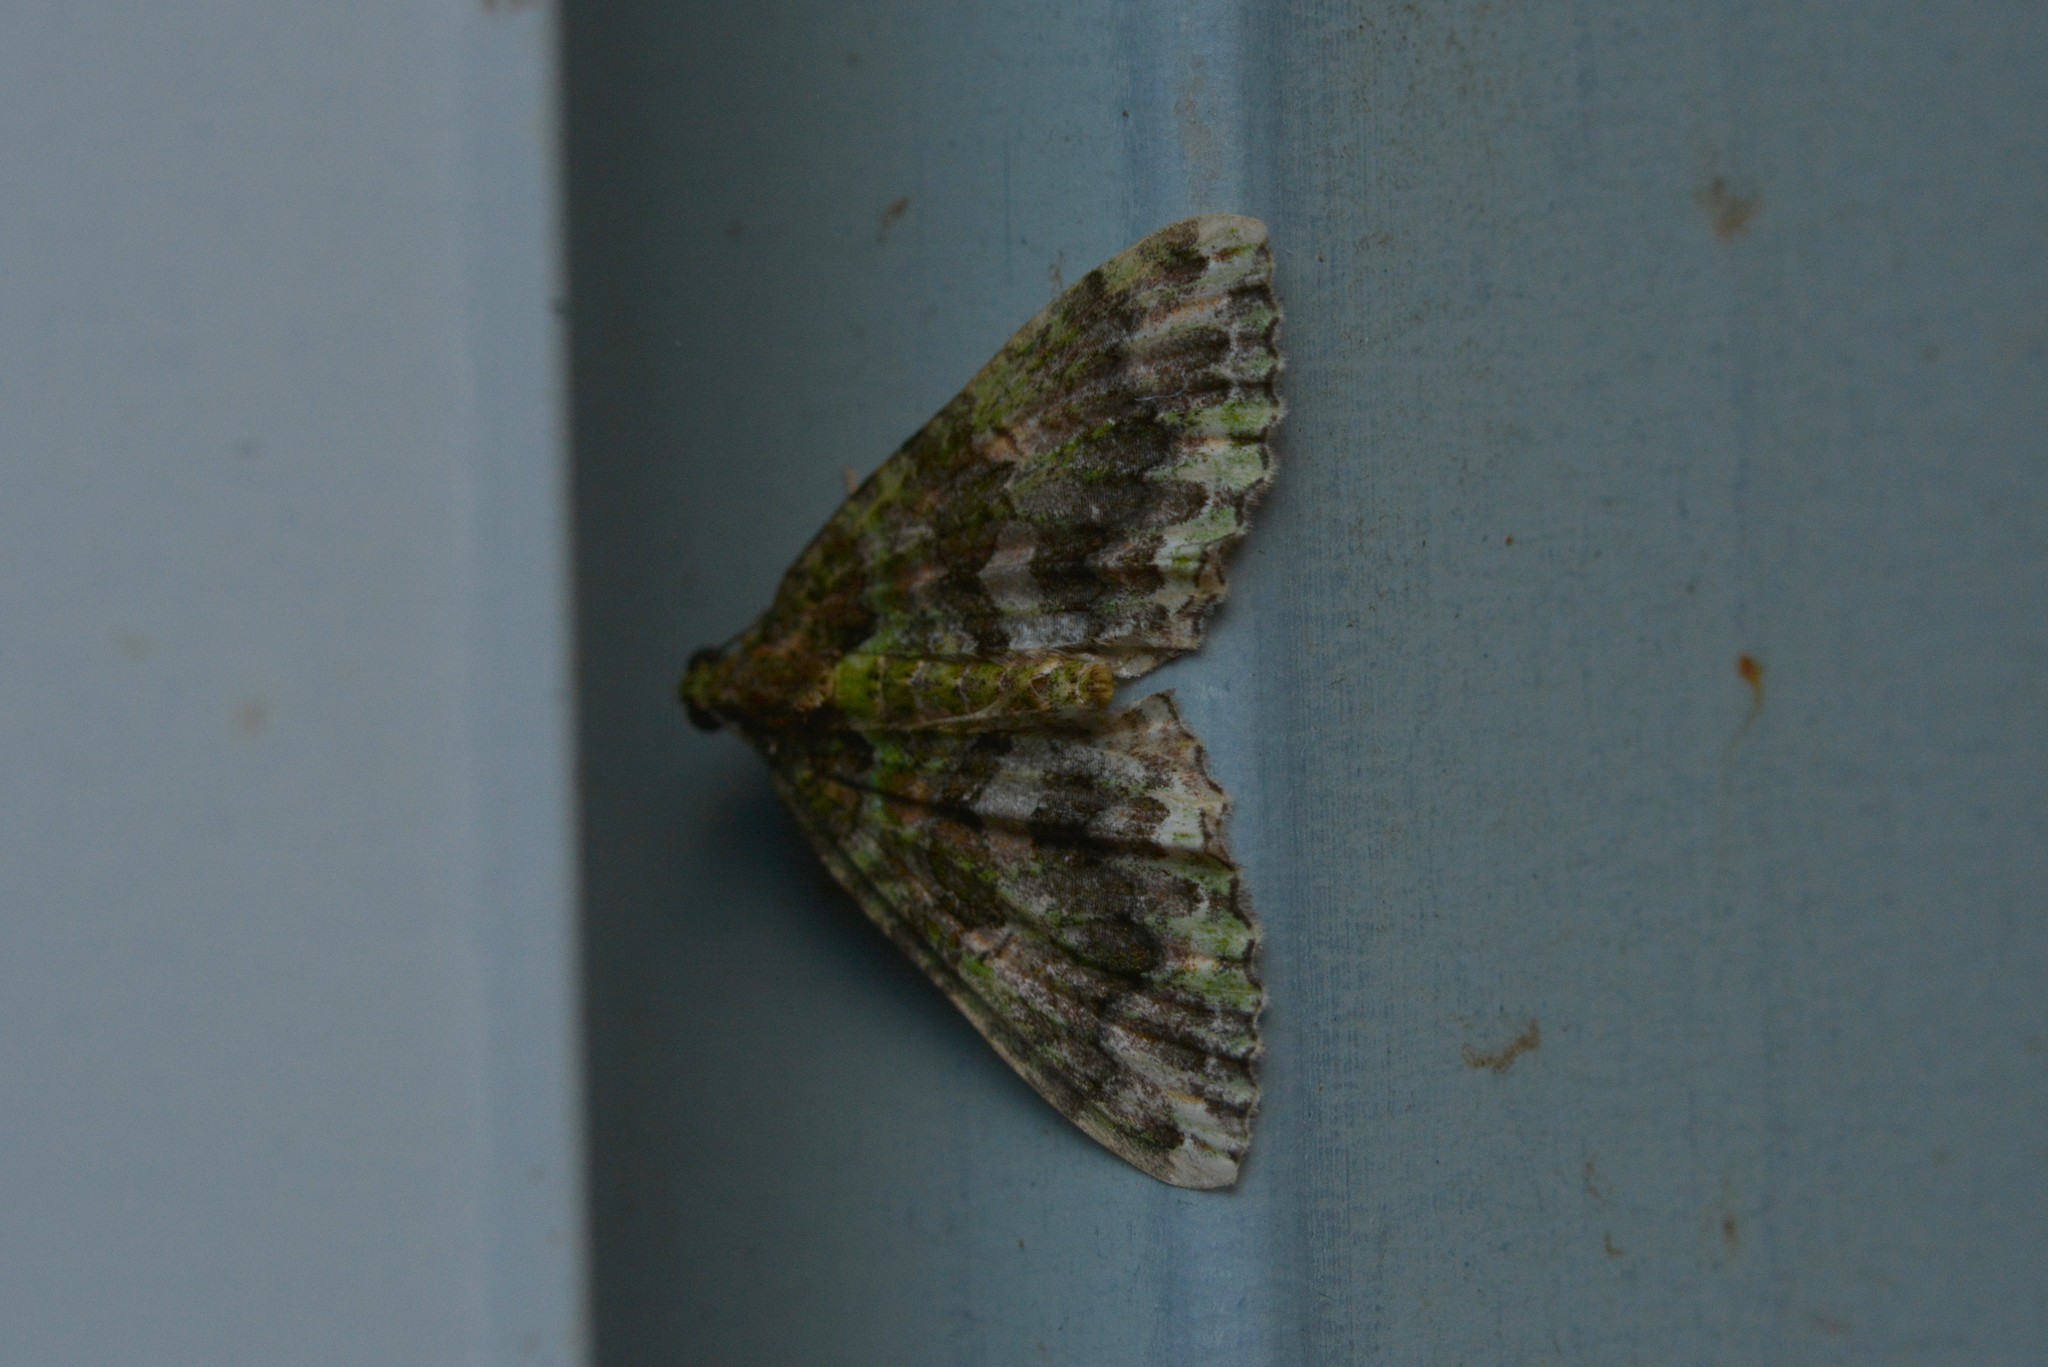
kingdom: Animalia
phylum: Arthropoda
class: Insecta
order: Lepidoptera
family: Geometridae
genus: Austrocidaria
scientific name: Austrocidaria similata
